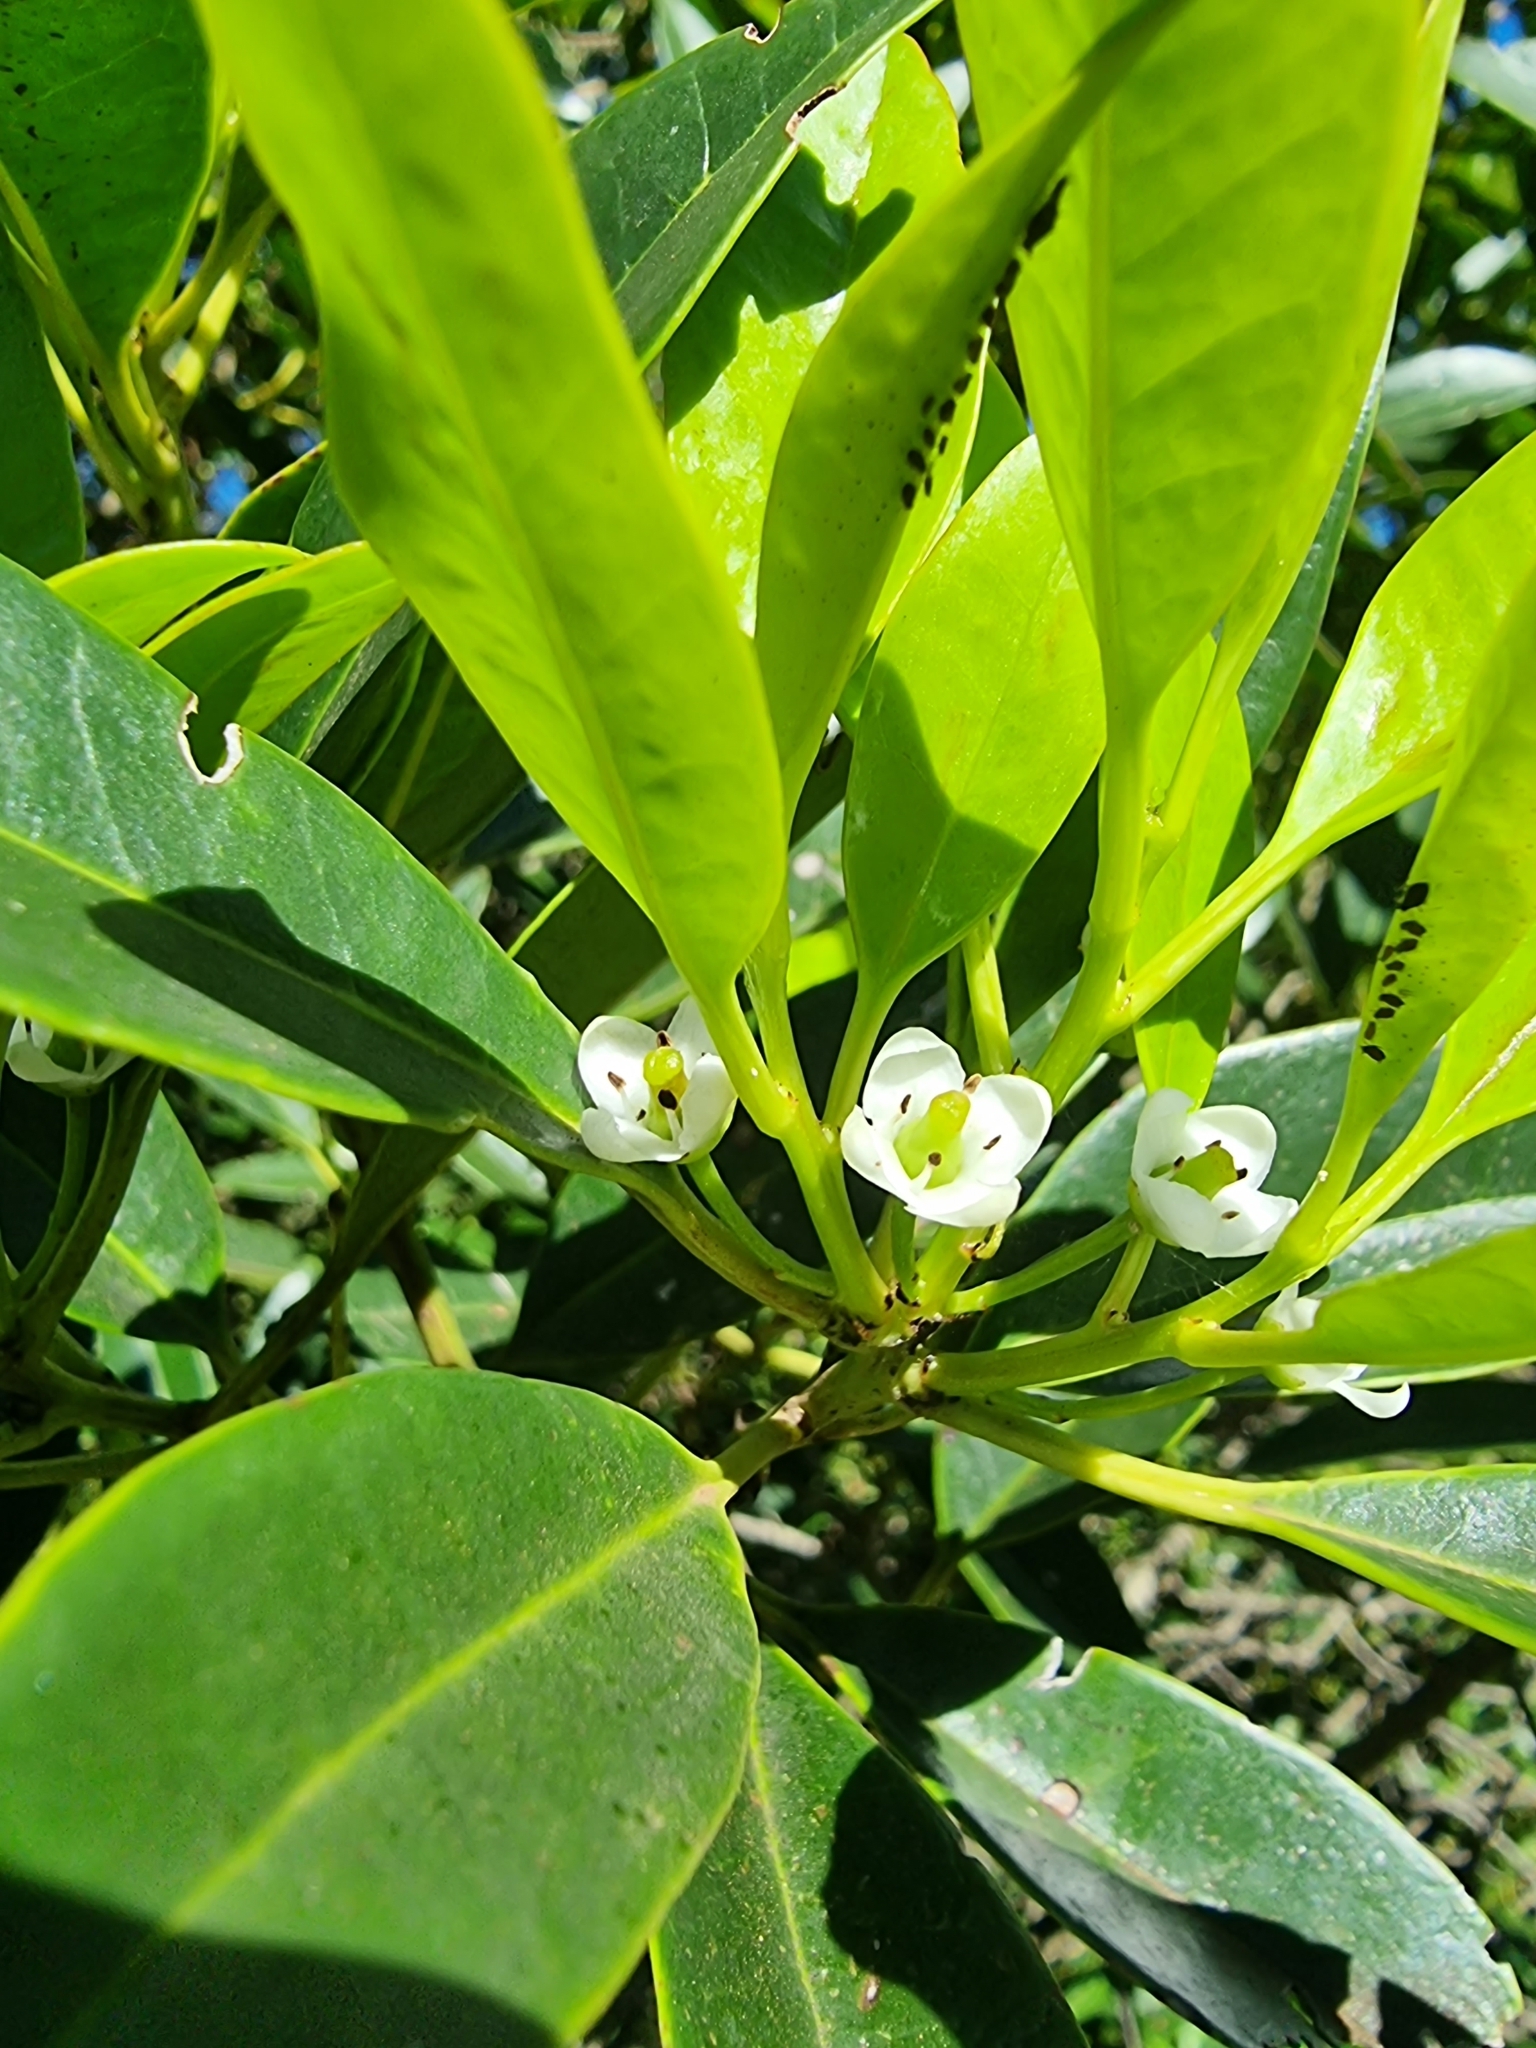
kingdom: Plantae
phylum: Tracheophyta
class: Magnoliopsida
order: Aquifoliales
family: Aquifoliaceae
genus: Ilex
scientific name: Ilex canariensis
